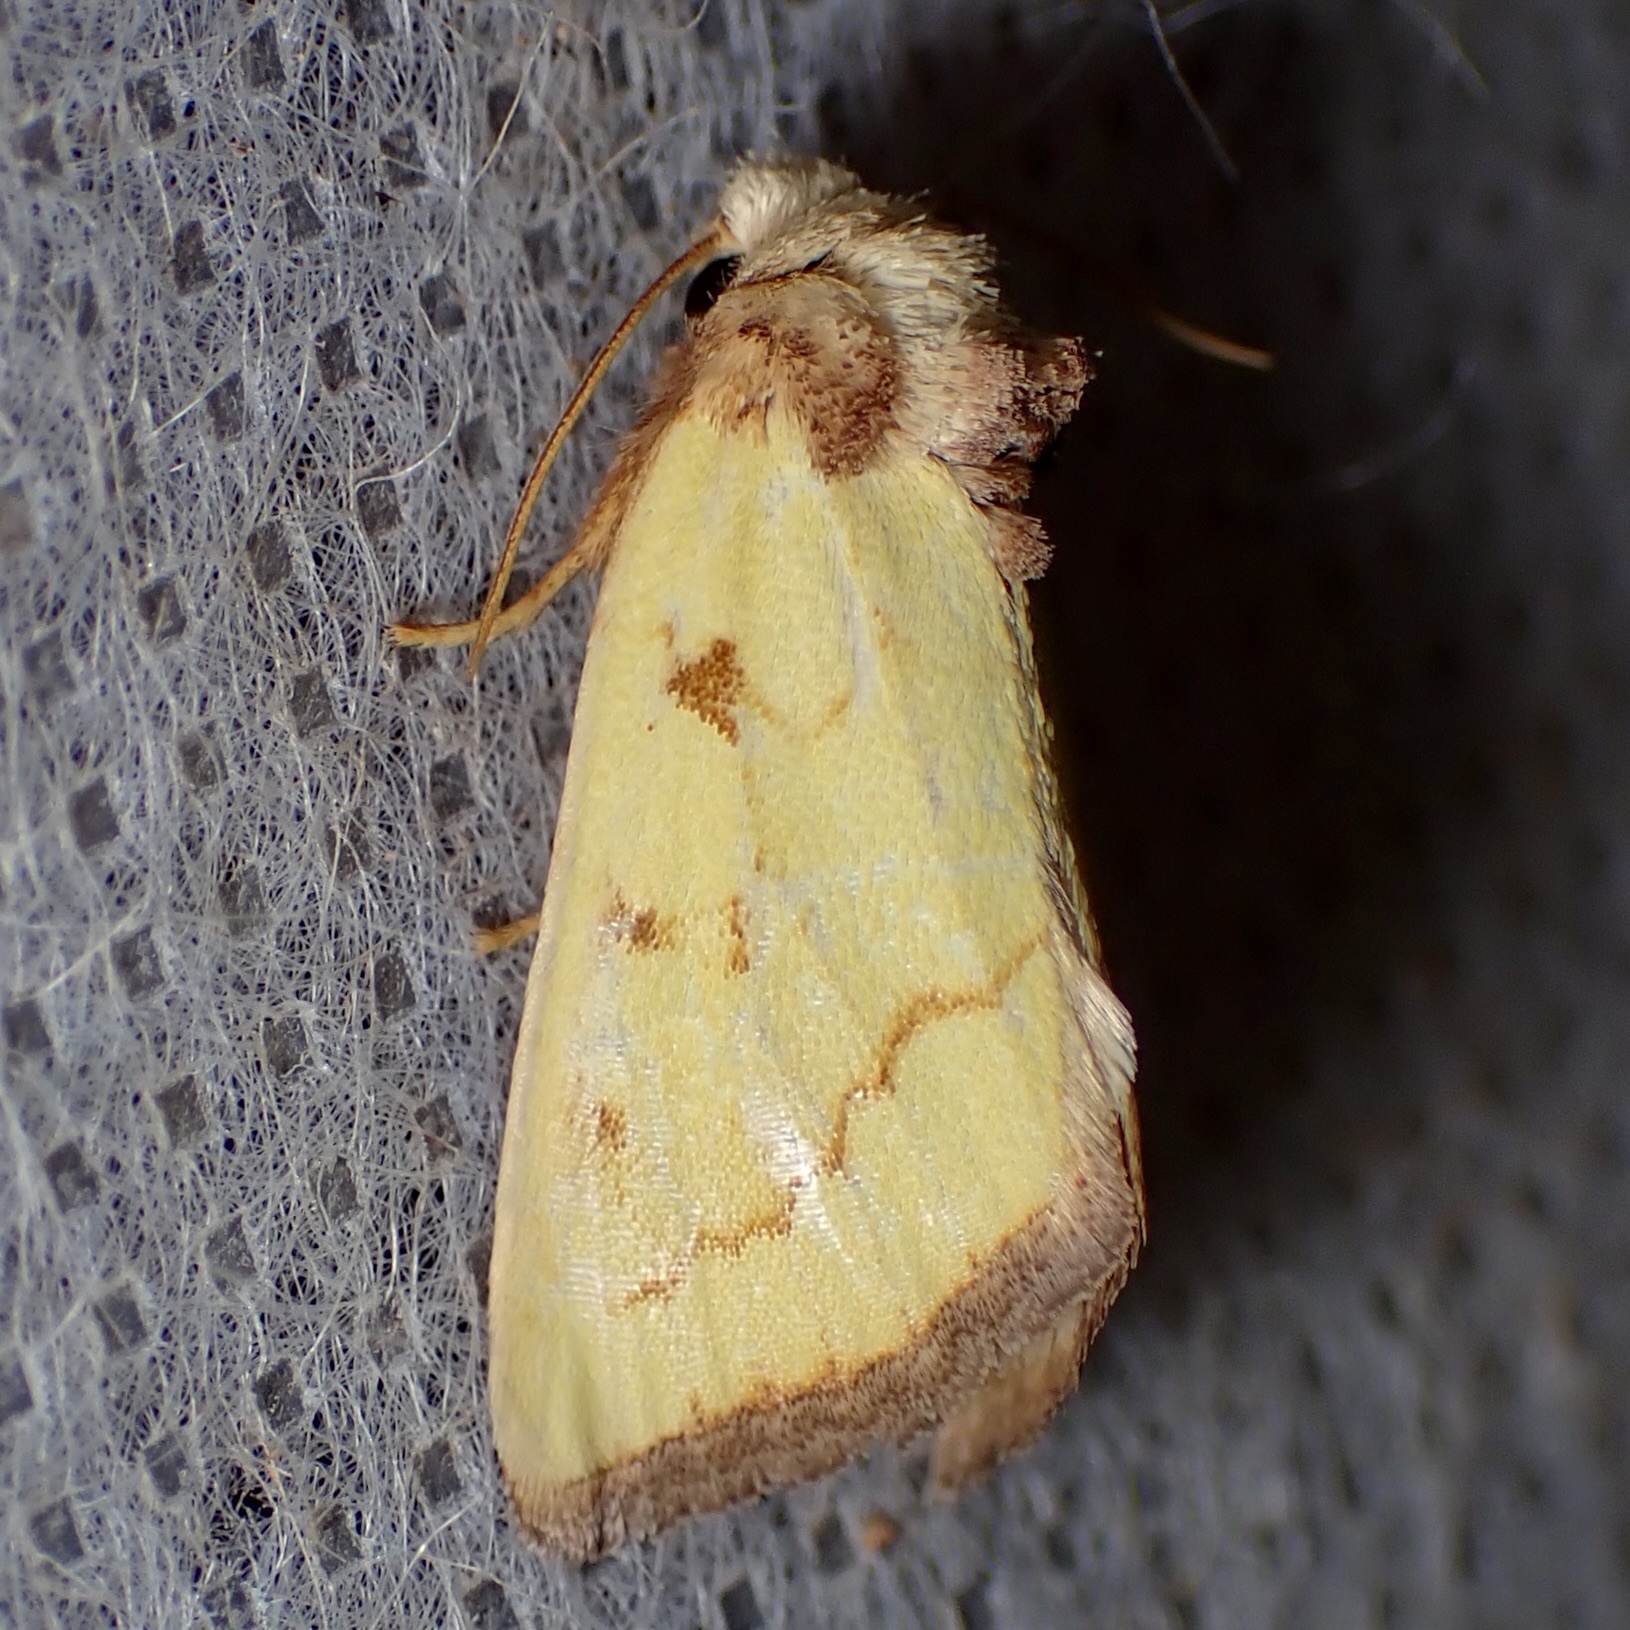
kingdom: Animalia
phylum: Arthropoda
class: Insecta
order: Lepidoptera
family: Noctuidae
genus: Nocloa
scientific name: Nocloa aliaga
